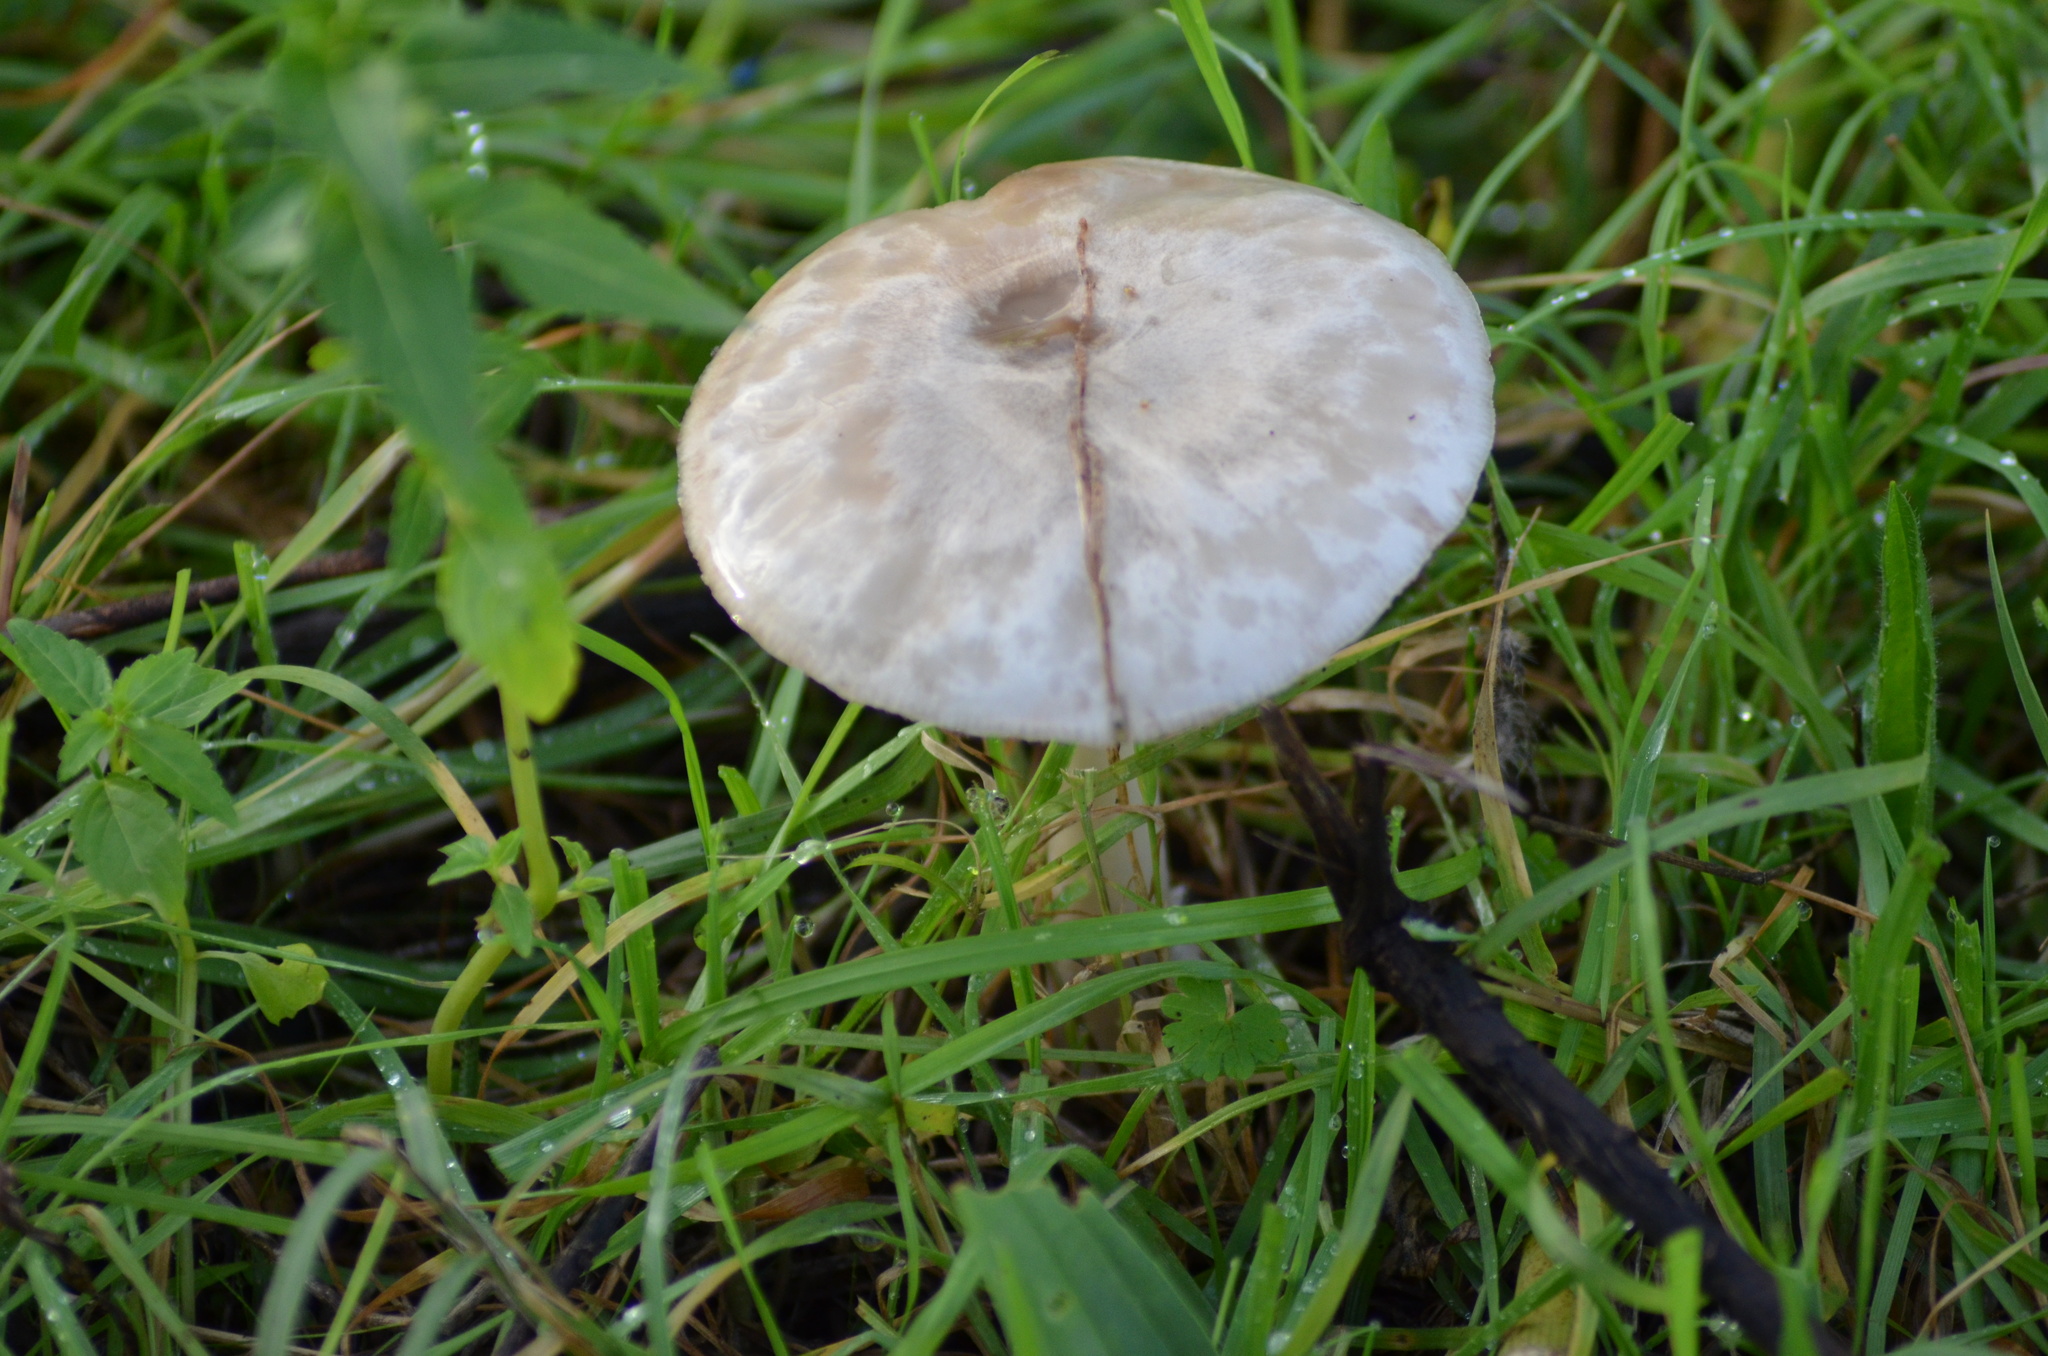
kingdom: Fungi
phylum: Basidiomycota
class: Agaricomycetes
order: Agaricales
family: Pluteaceae
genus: Volvopluteus
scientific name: Volvopluteus gloiocephalus
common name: Stubble rosegill
